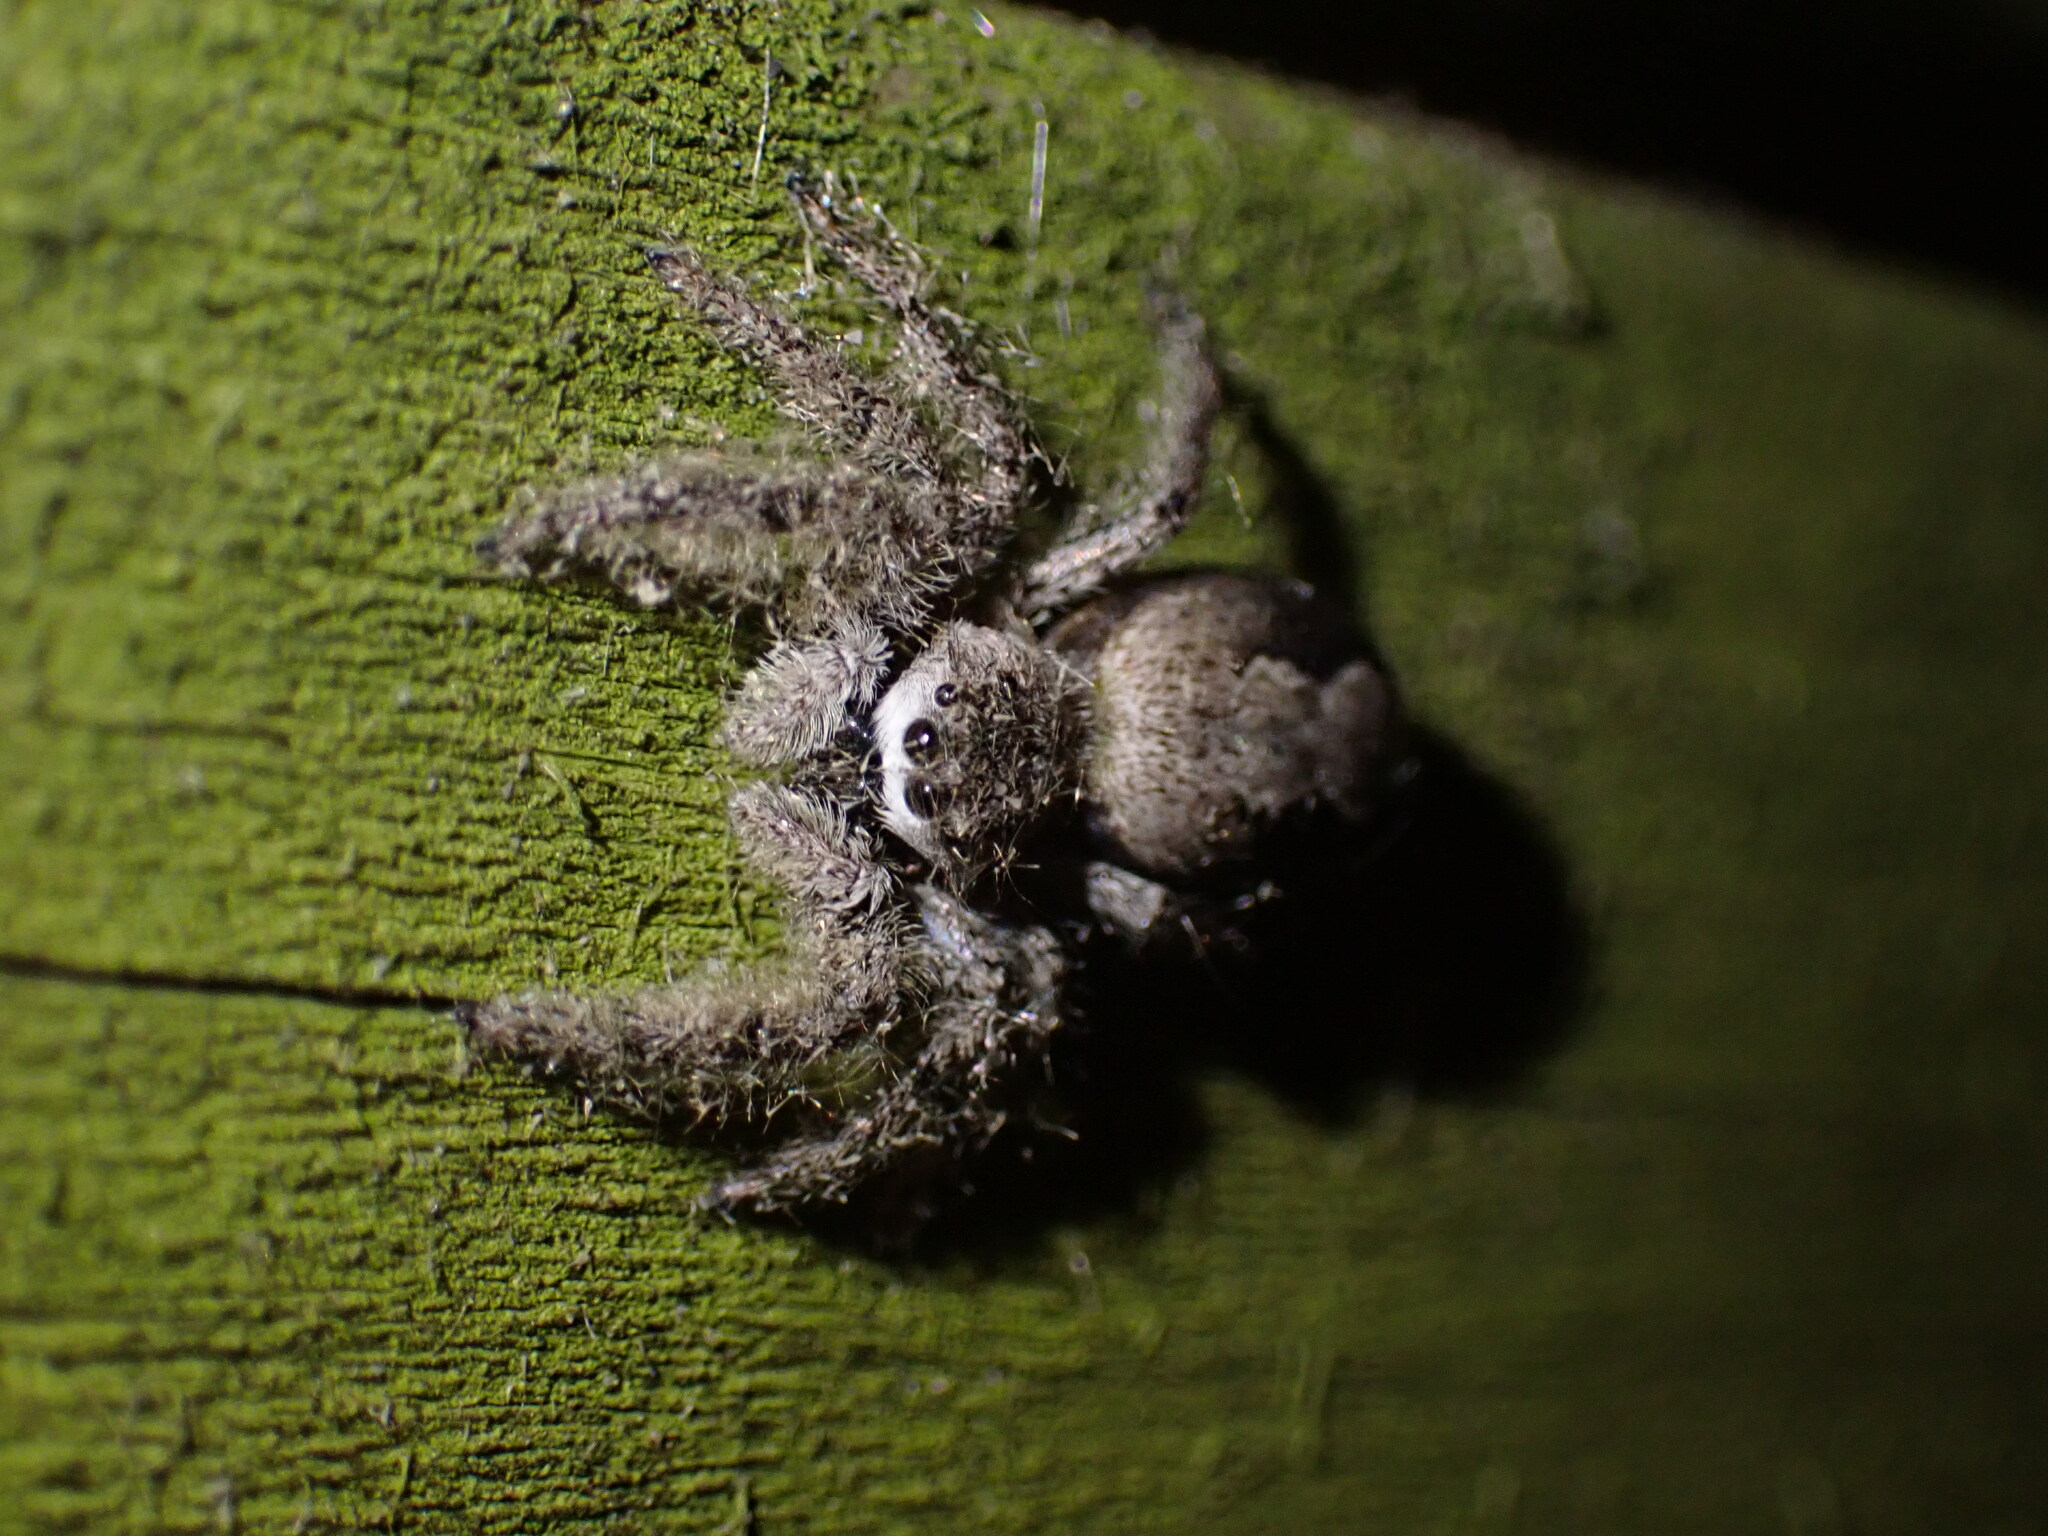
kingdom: Animalia
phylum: Arthropoda
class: Arachnida
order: Araneae
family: Salticidae
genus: Platycryptus
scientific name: Platycryptus undatus
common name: Tan jumping spider
